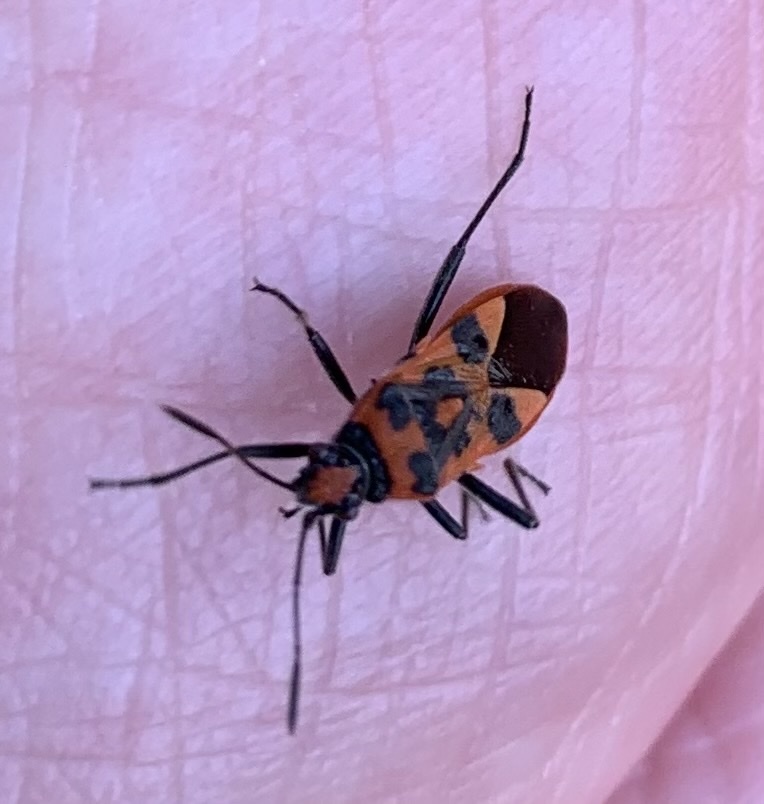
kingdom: Animalia
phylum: Arthropoda
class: Insecta
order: Hemiptera
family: Rhopalidae
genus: Corizus
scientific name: Corizus hyoscyami
